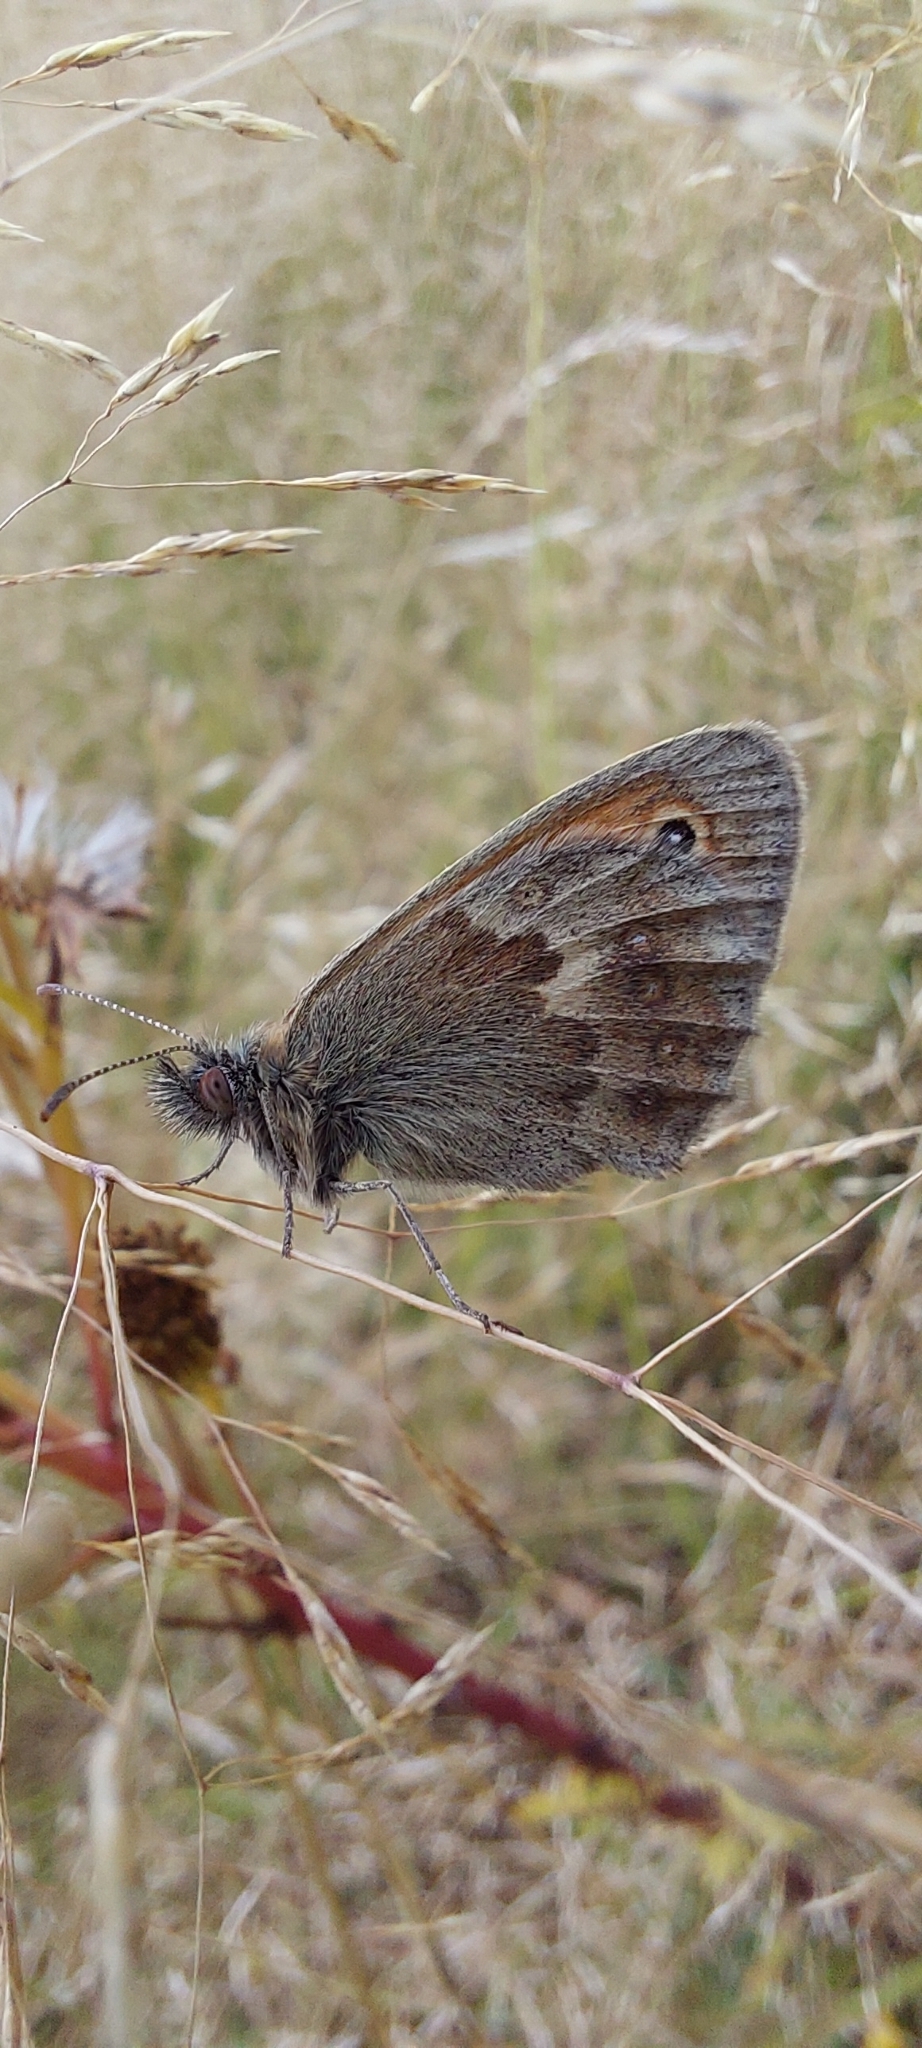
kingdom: Animalia
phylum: Arthropoda
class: Insecta
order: Lepidoptera
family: Nymphalidae
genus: Coenonympha
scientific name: Coenonympha pamphilus
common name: Small heath
